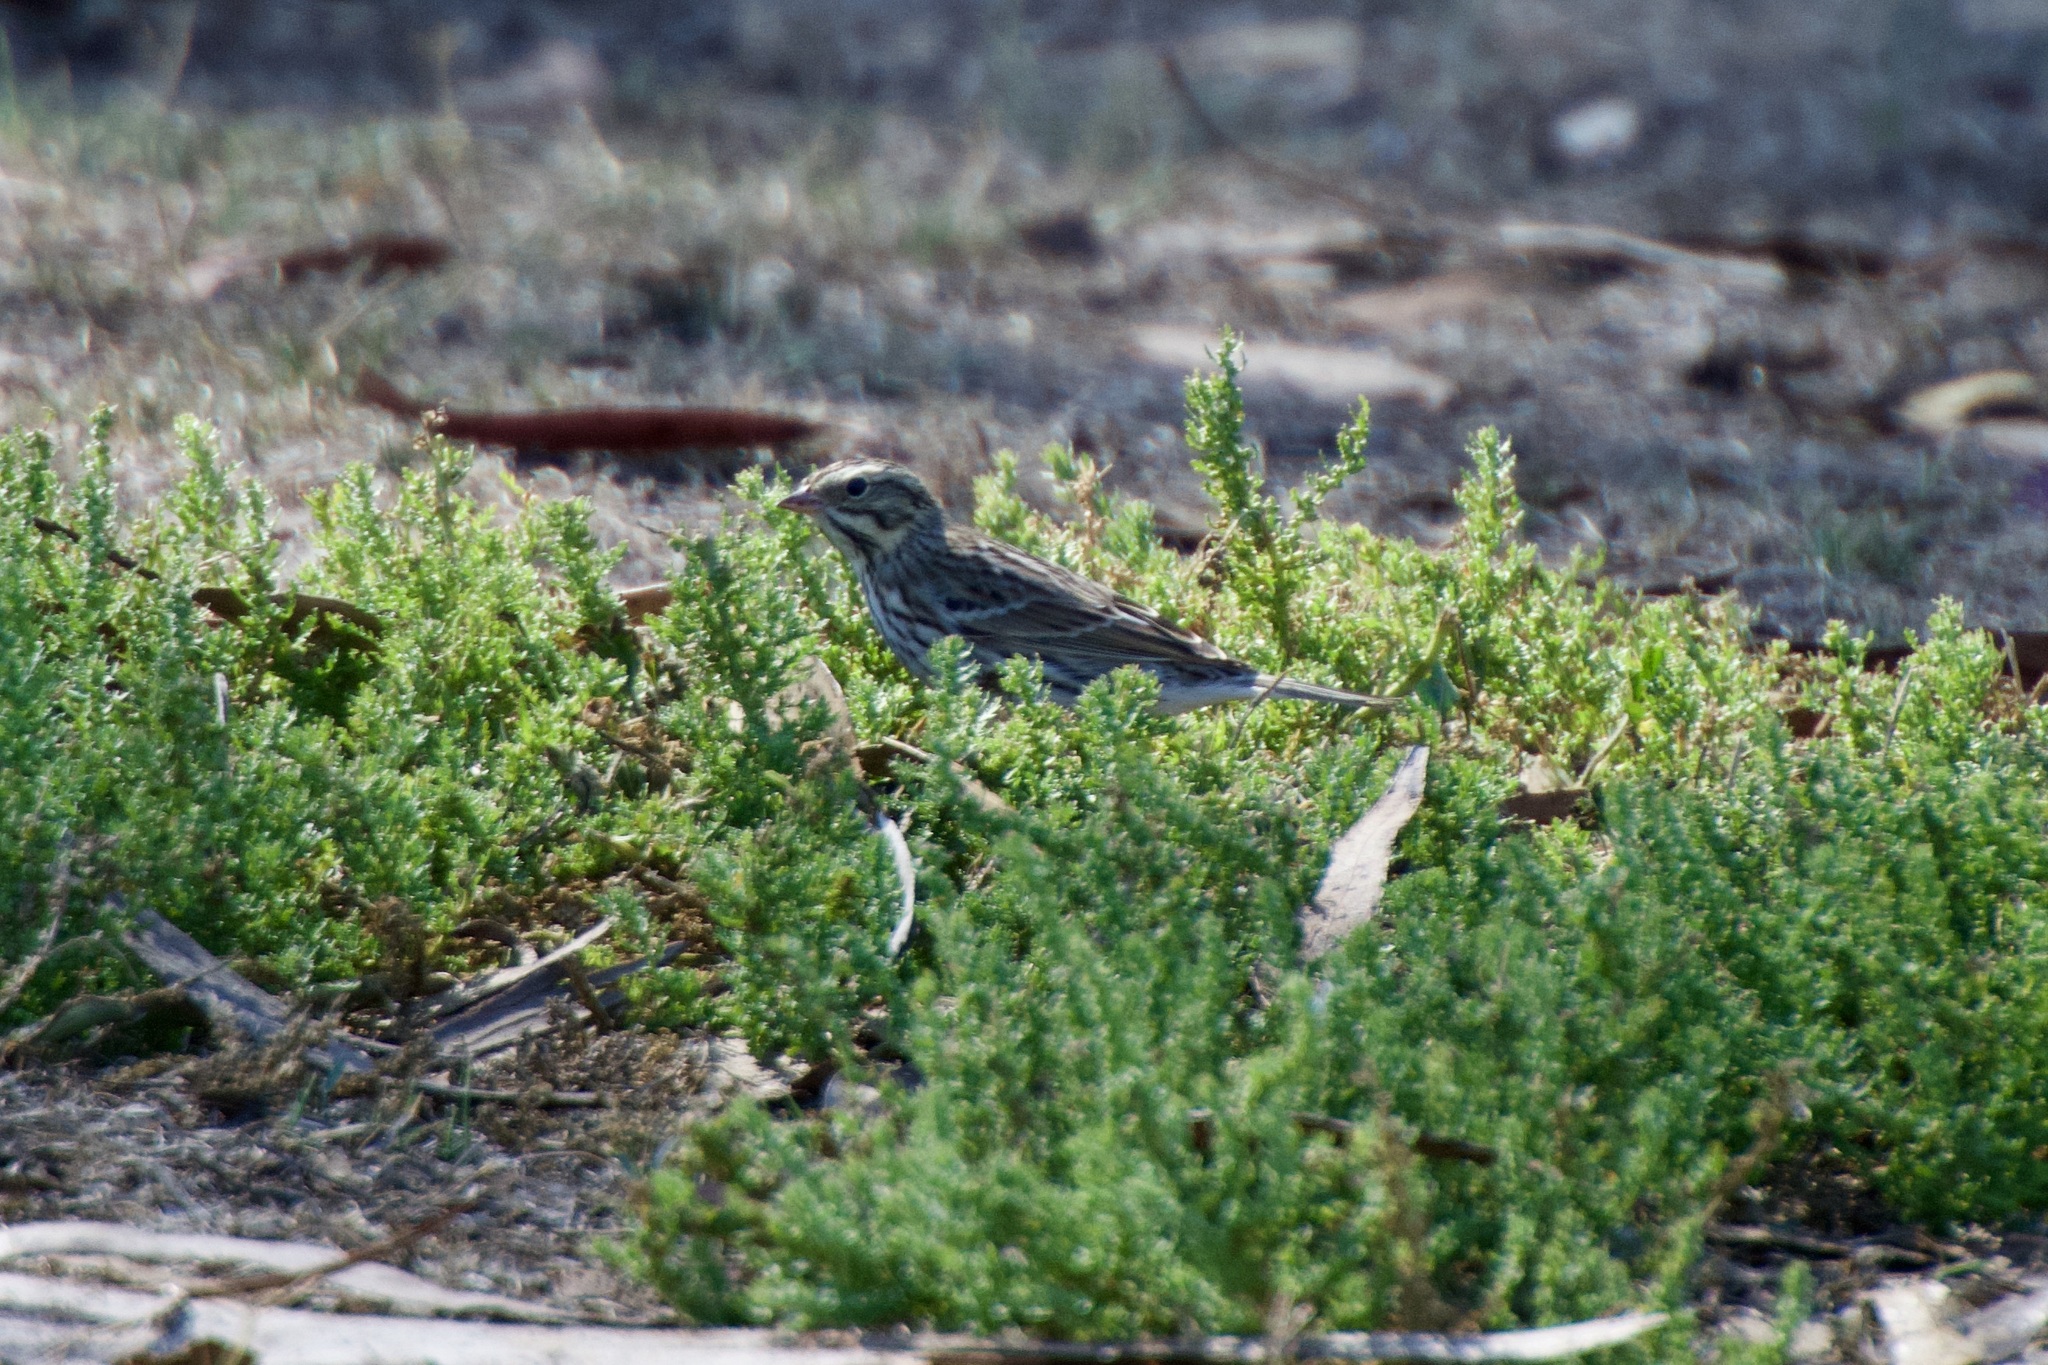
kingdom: Animalia
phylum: Chordata
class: Aves
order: Passeriformes
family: Passerellidae
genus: Passerculus
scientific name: Passerculus sandwichensis
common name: Savannah sparrow
